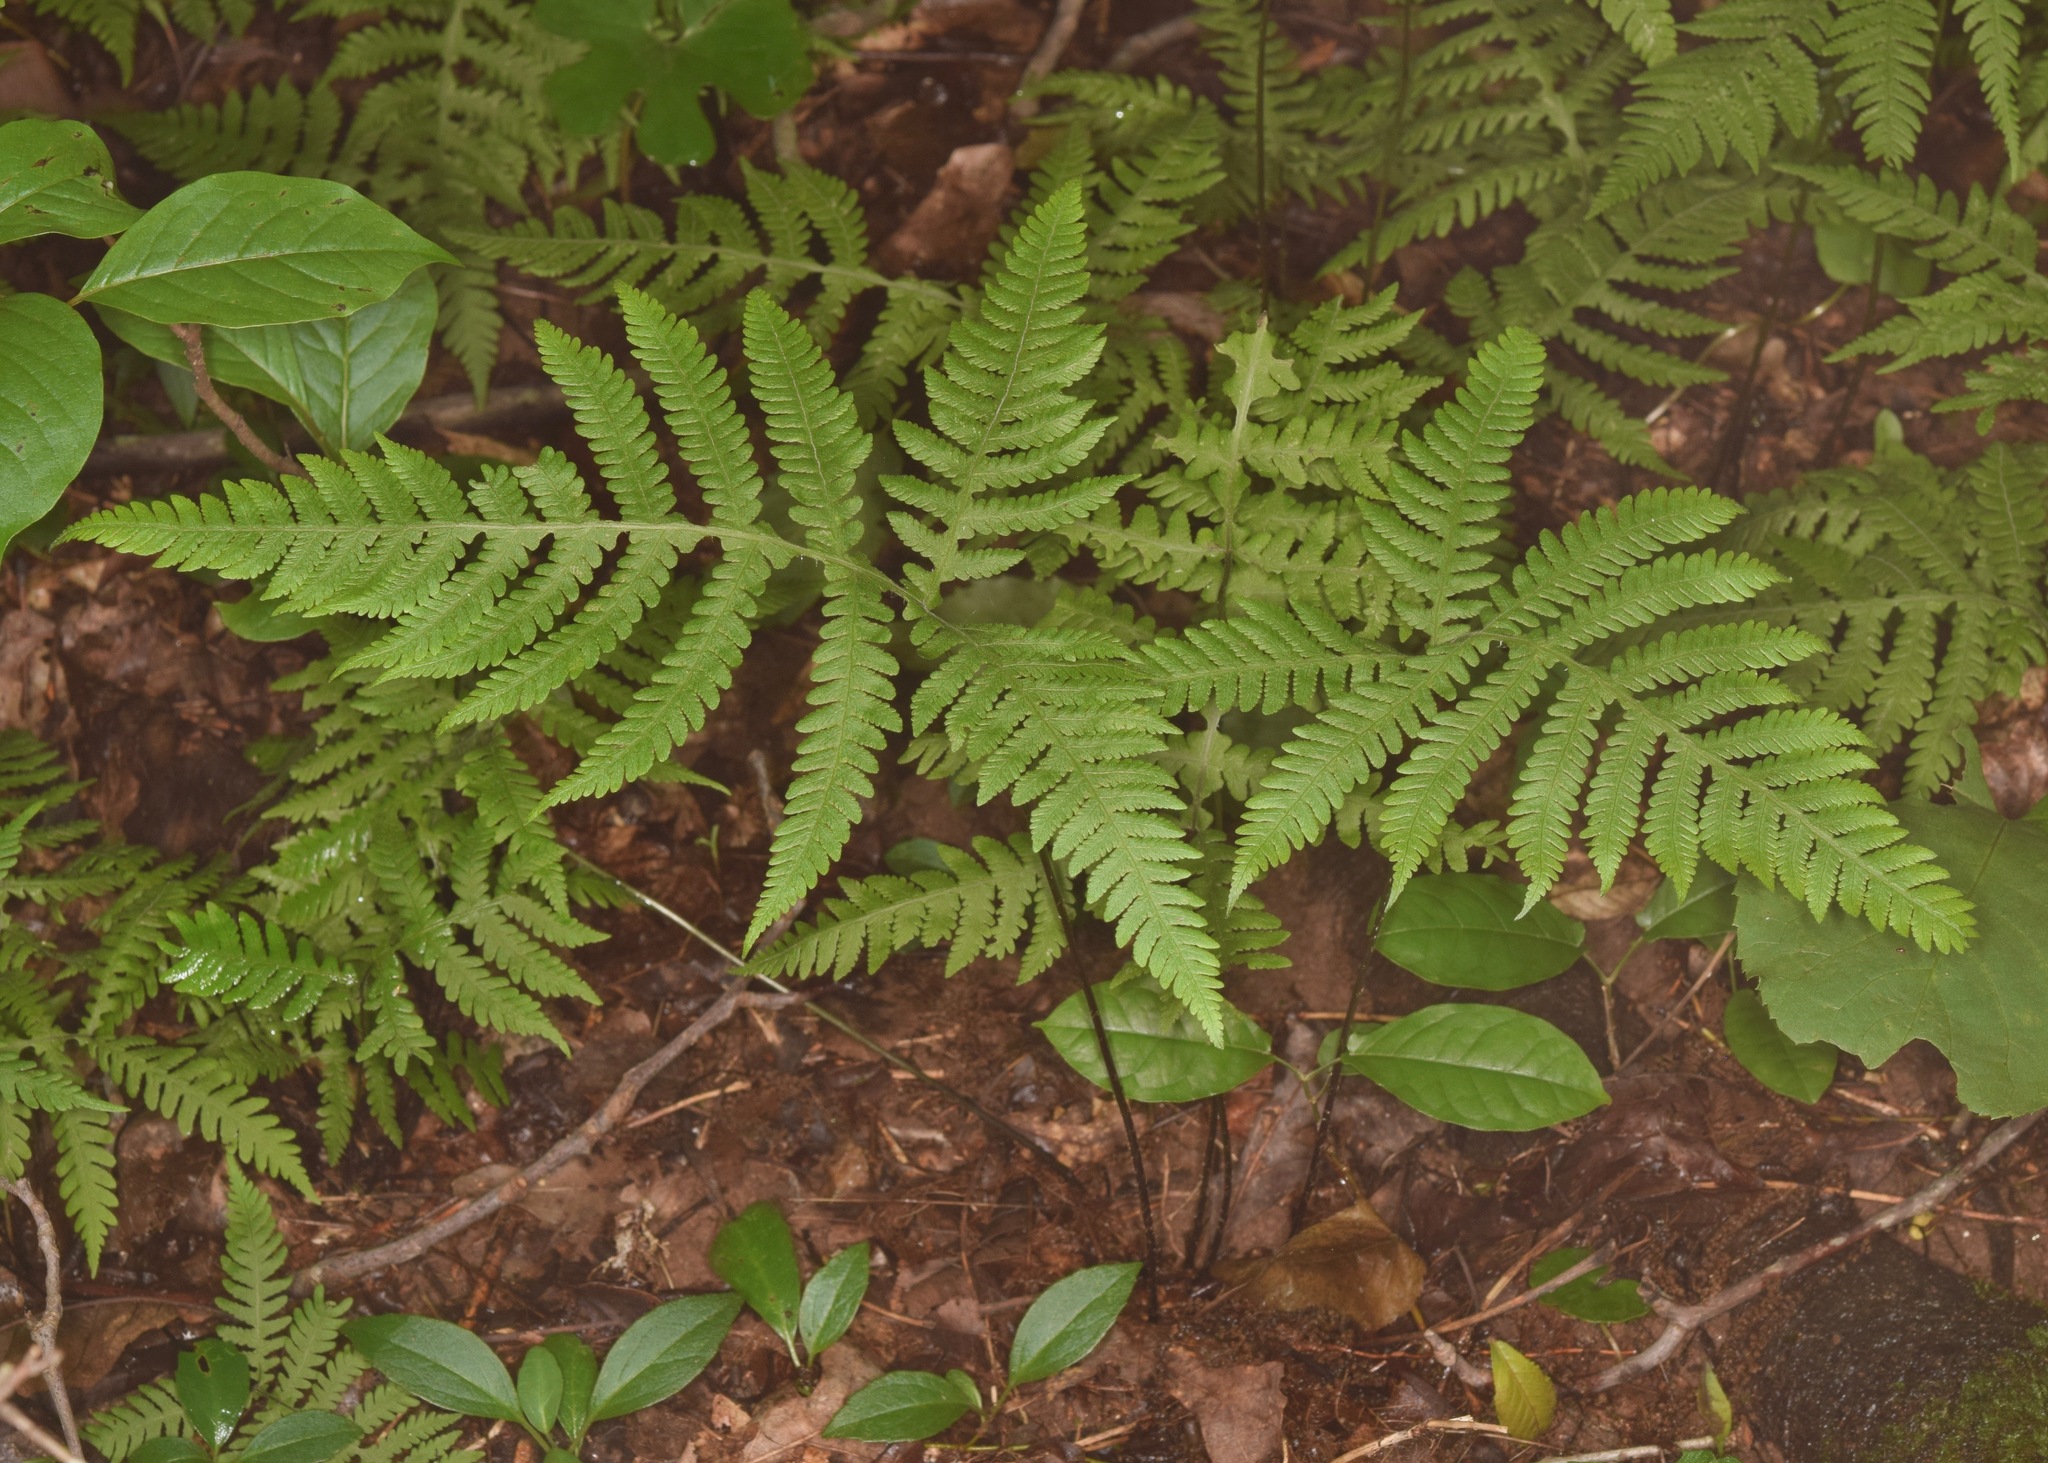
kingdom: Plantae
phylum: Tracheophyta
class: Polypodiopsida
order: Polypodiales
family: Thelypteridaceae
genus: Phegopteris
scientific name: Phegopteris hexagonoptera
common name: Broad beech fern
